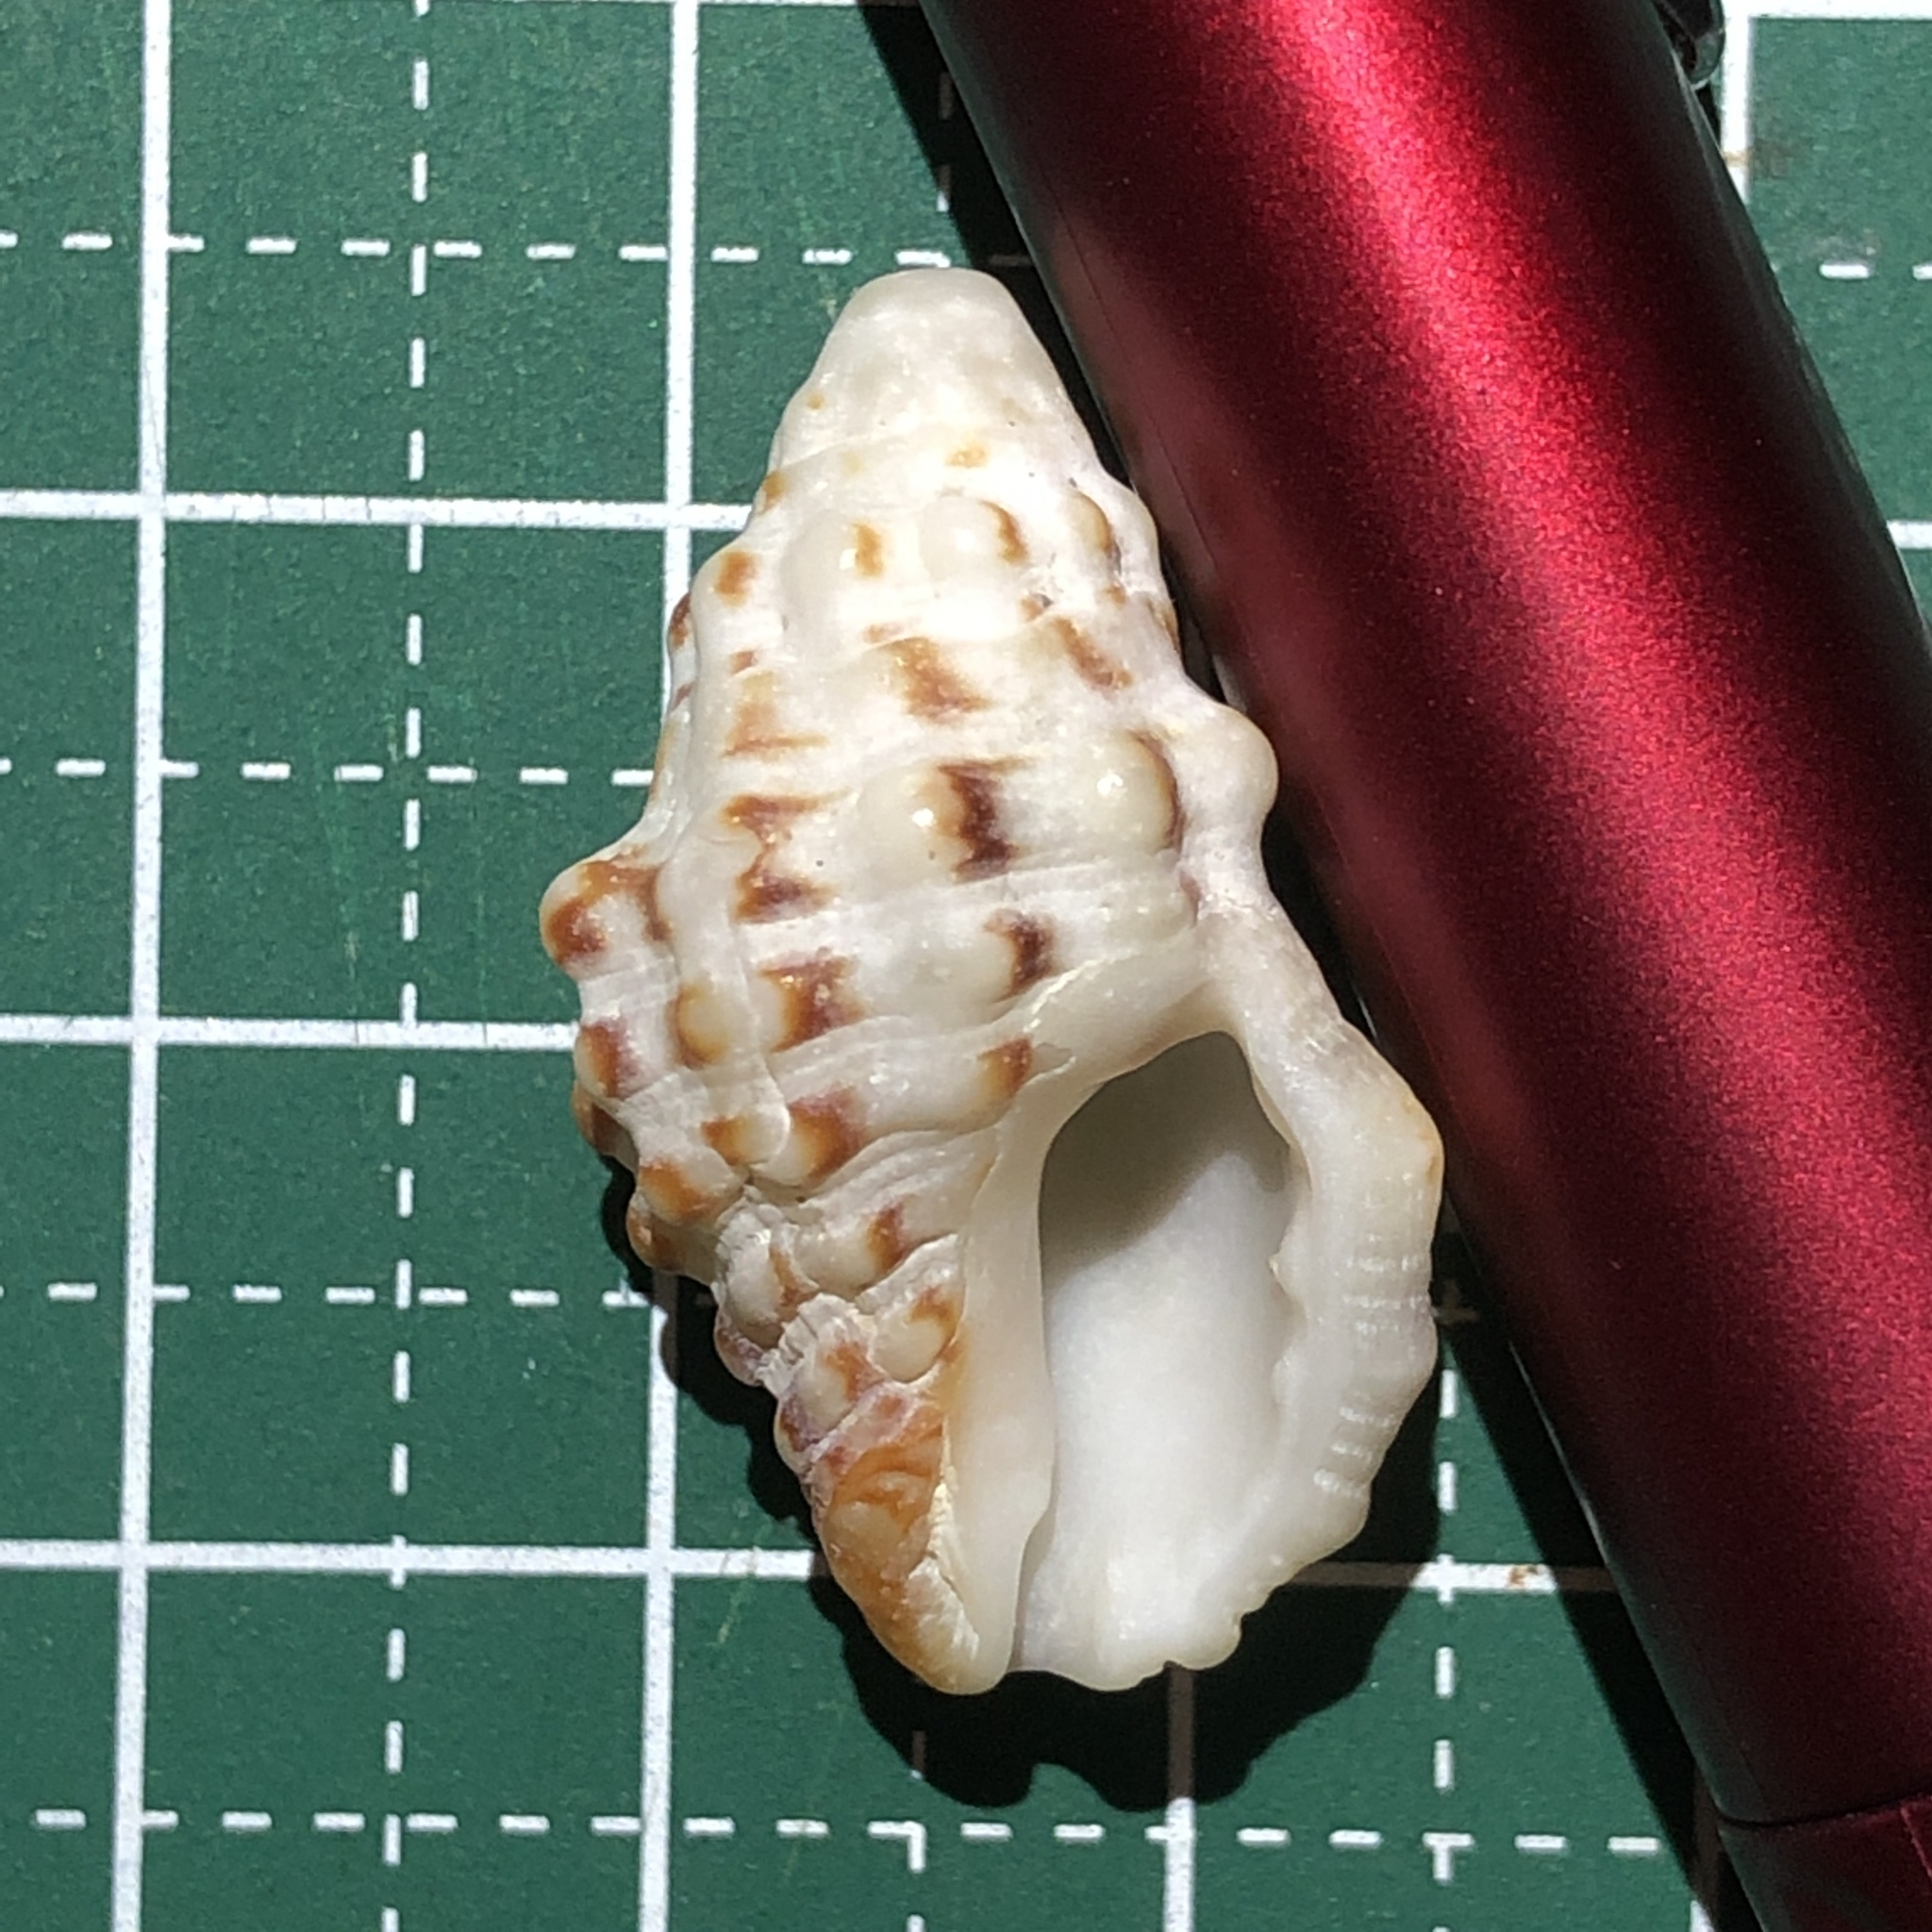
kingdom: Animalia
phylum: Mollusca
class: Gastropoda
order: Neogastropoda
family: Muricidae
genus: Drupella
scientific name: Drupella rugosa
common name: Harmonious drupe
